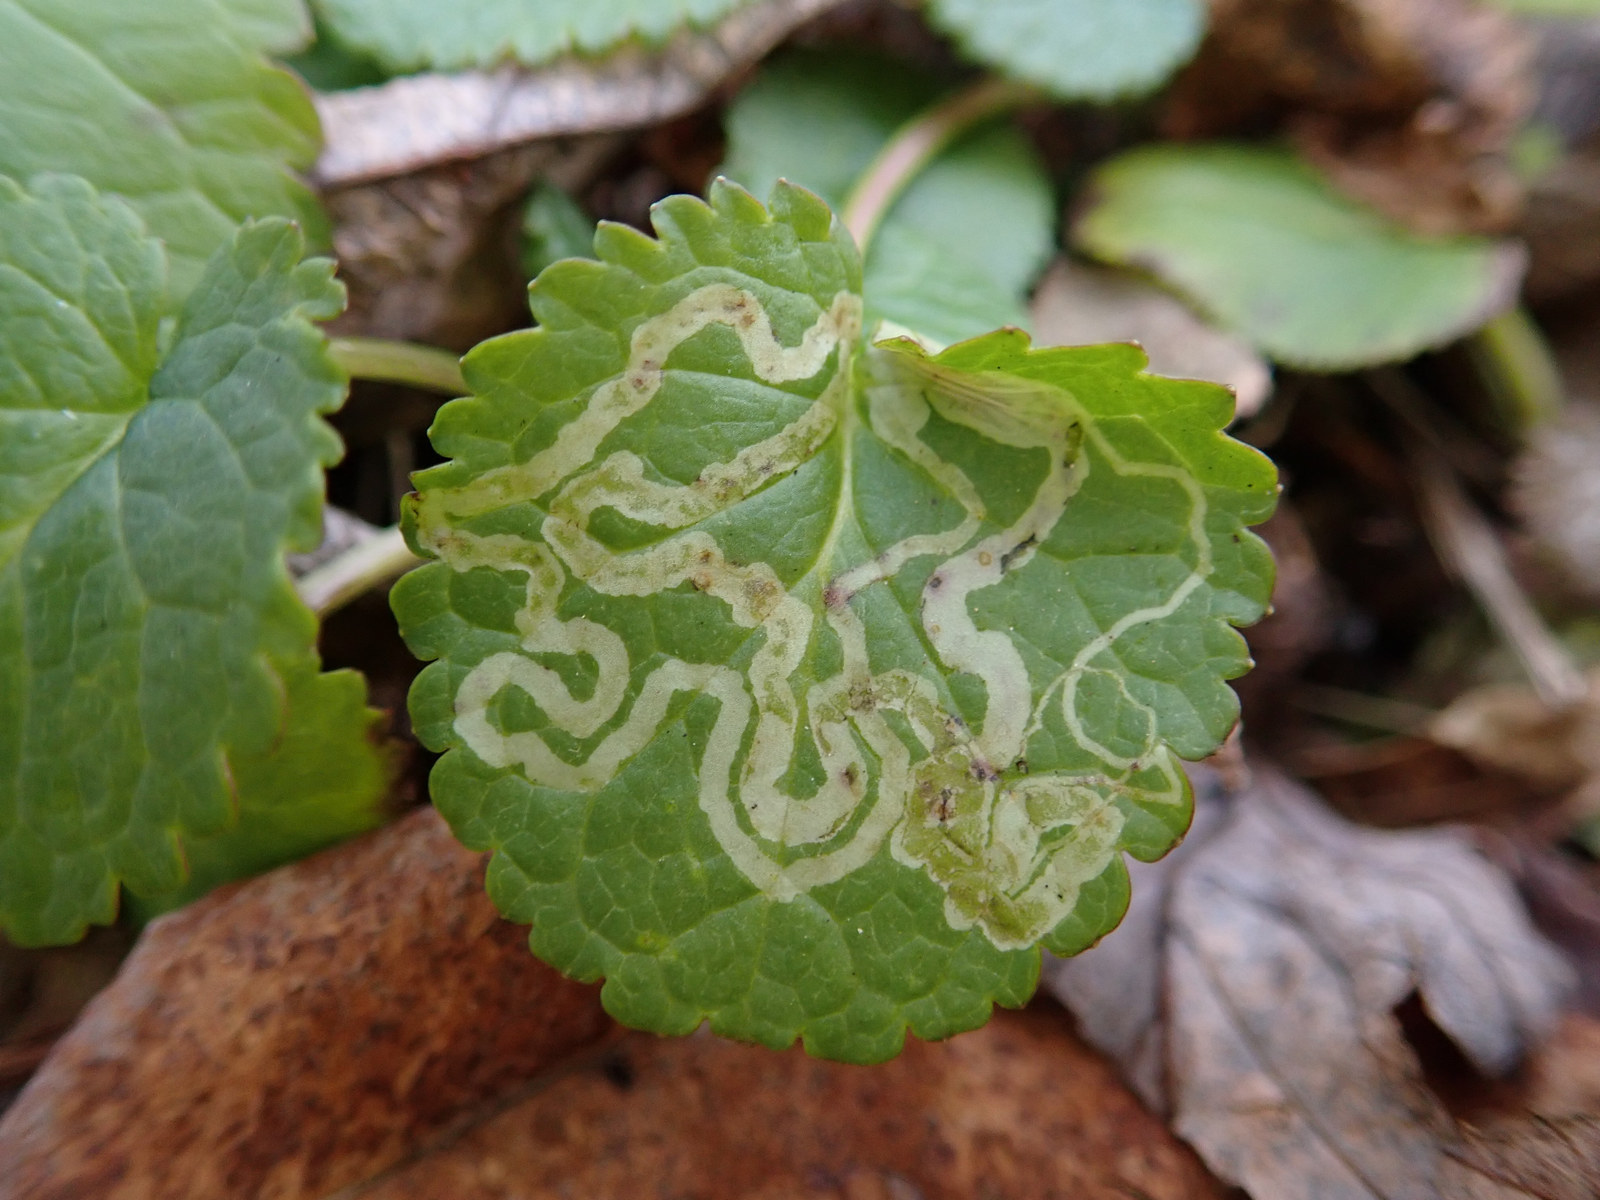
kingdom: Animalia
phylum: Arthropoda
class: Insecta
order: Lepidoptera
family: Gracillariidae
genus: Phyllocnistis
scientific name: Phyllocnistis insignis
